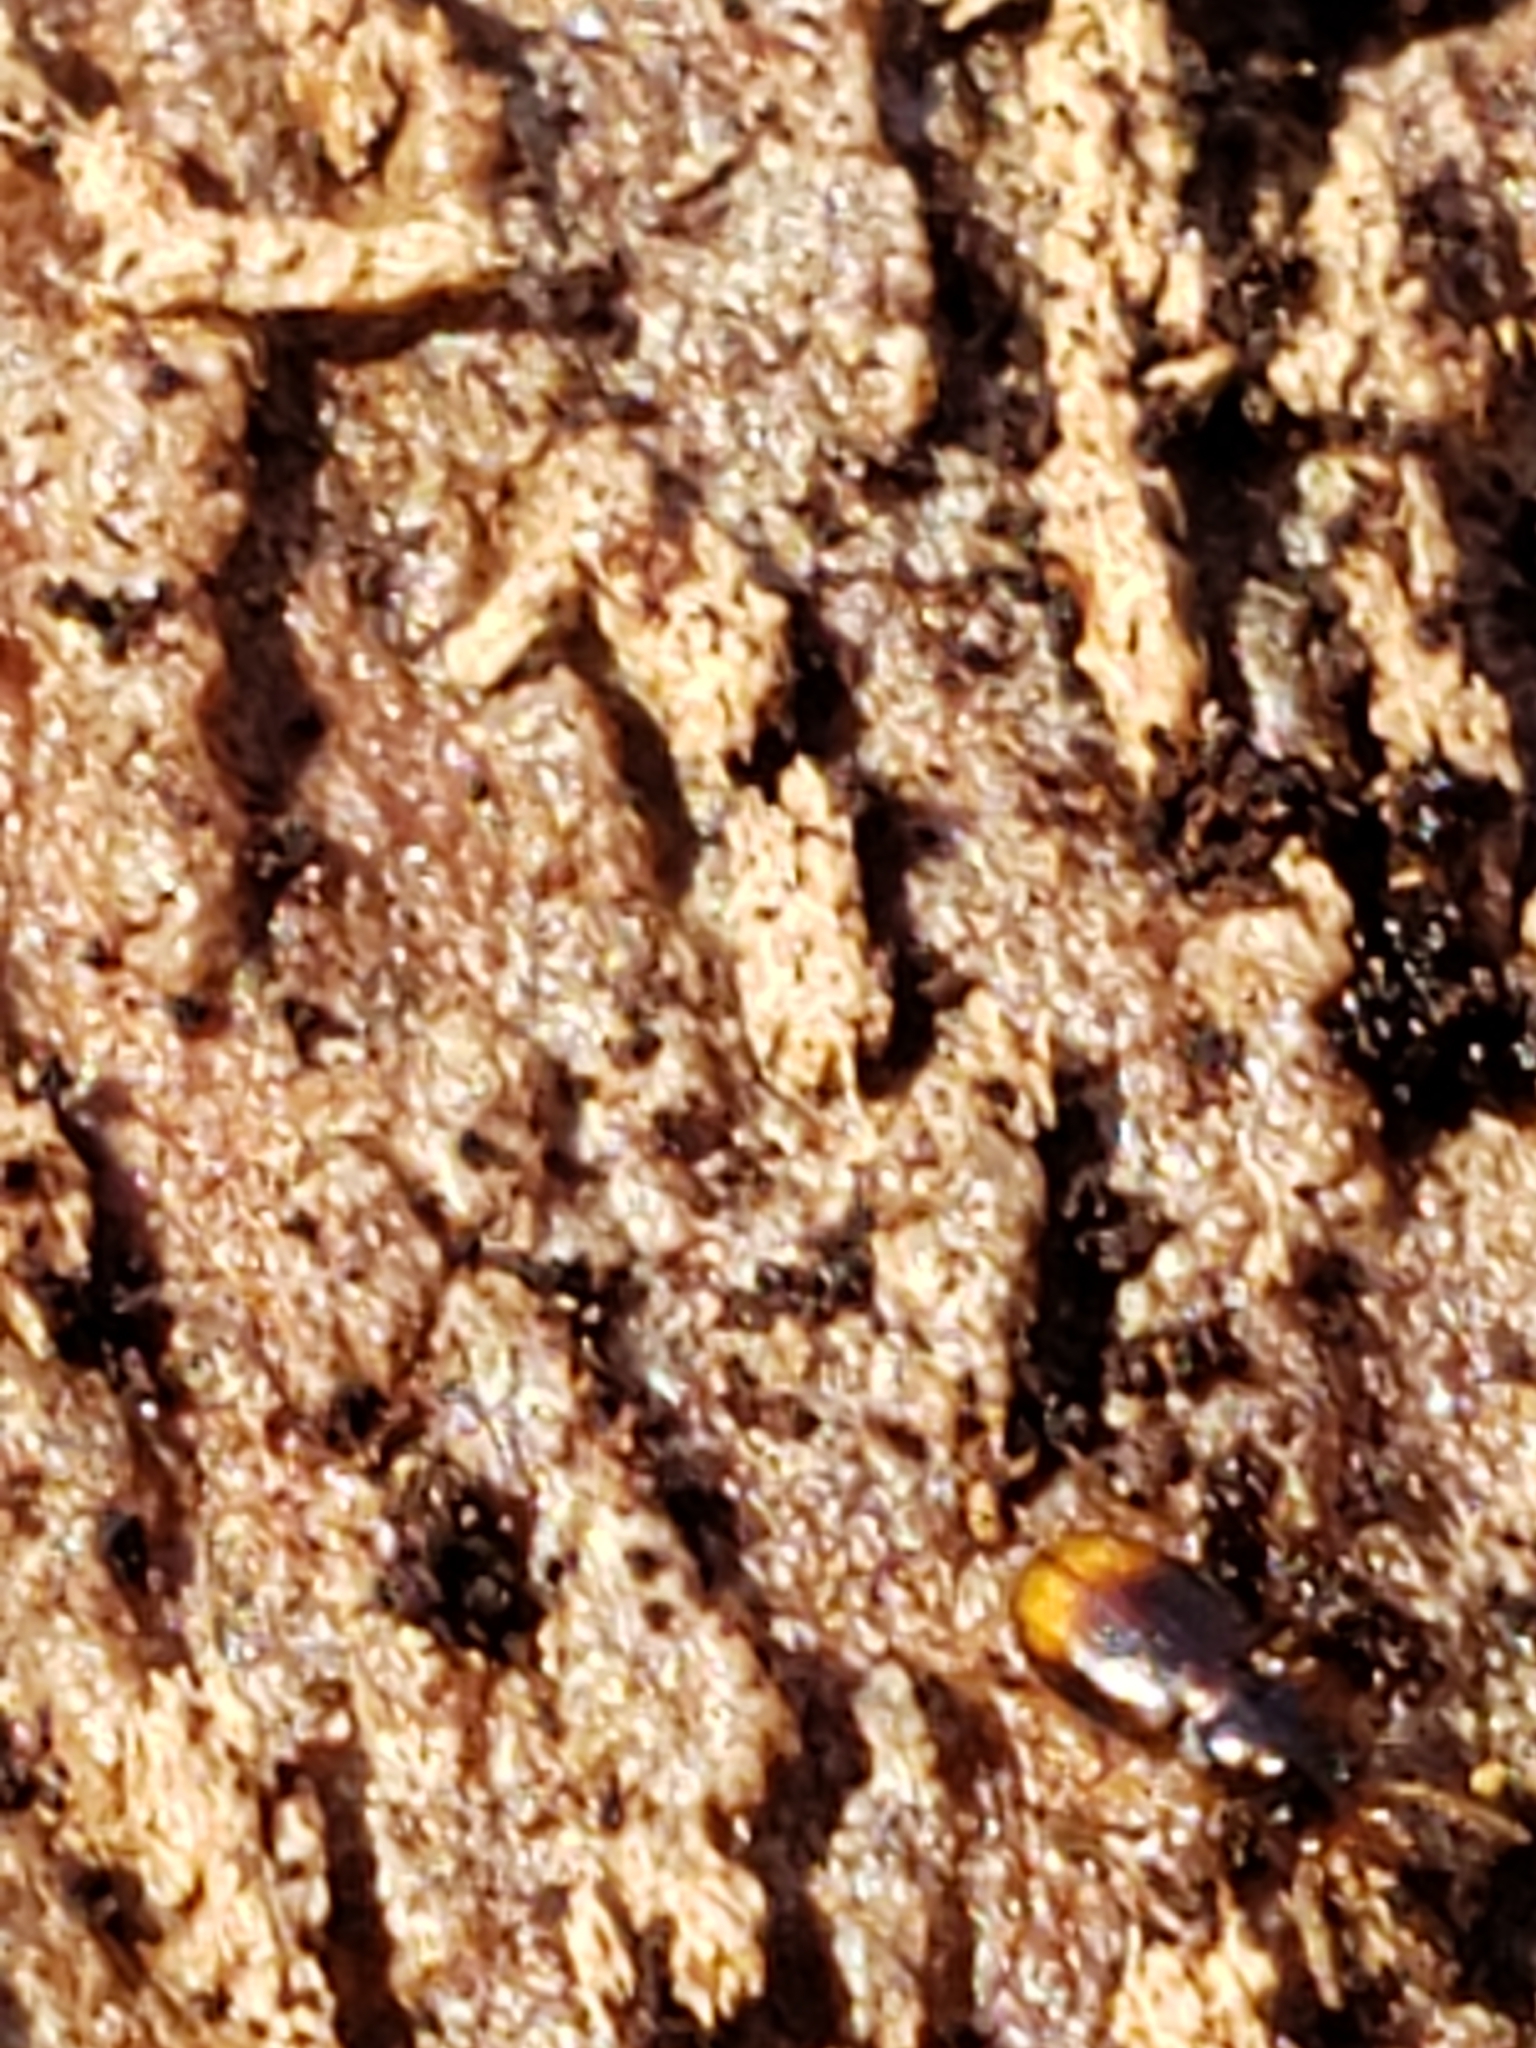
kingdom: Animalia
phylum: Arthropoda
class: Insecta
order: Coleoptera
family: Carabidae
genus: Mioptachys
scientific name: Mioptachys flavicauda
